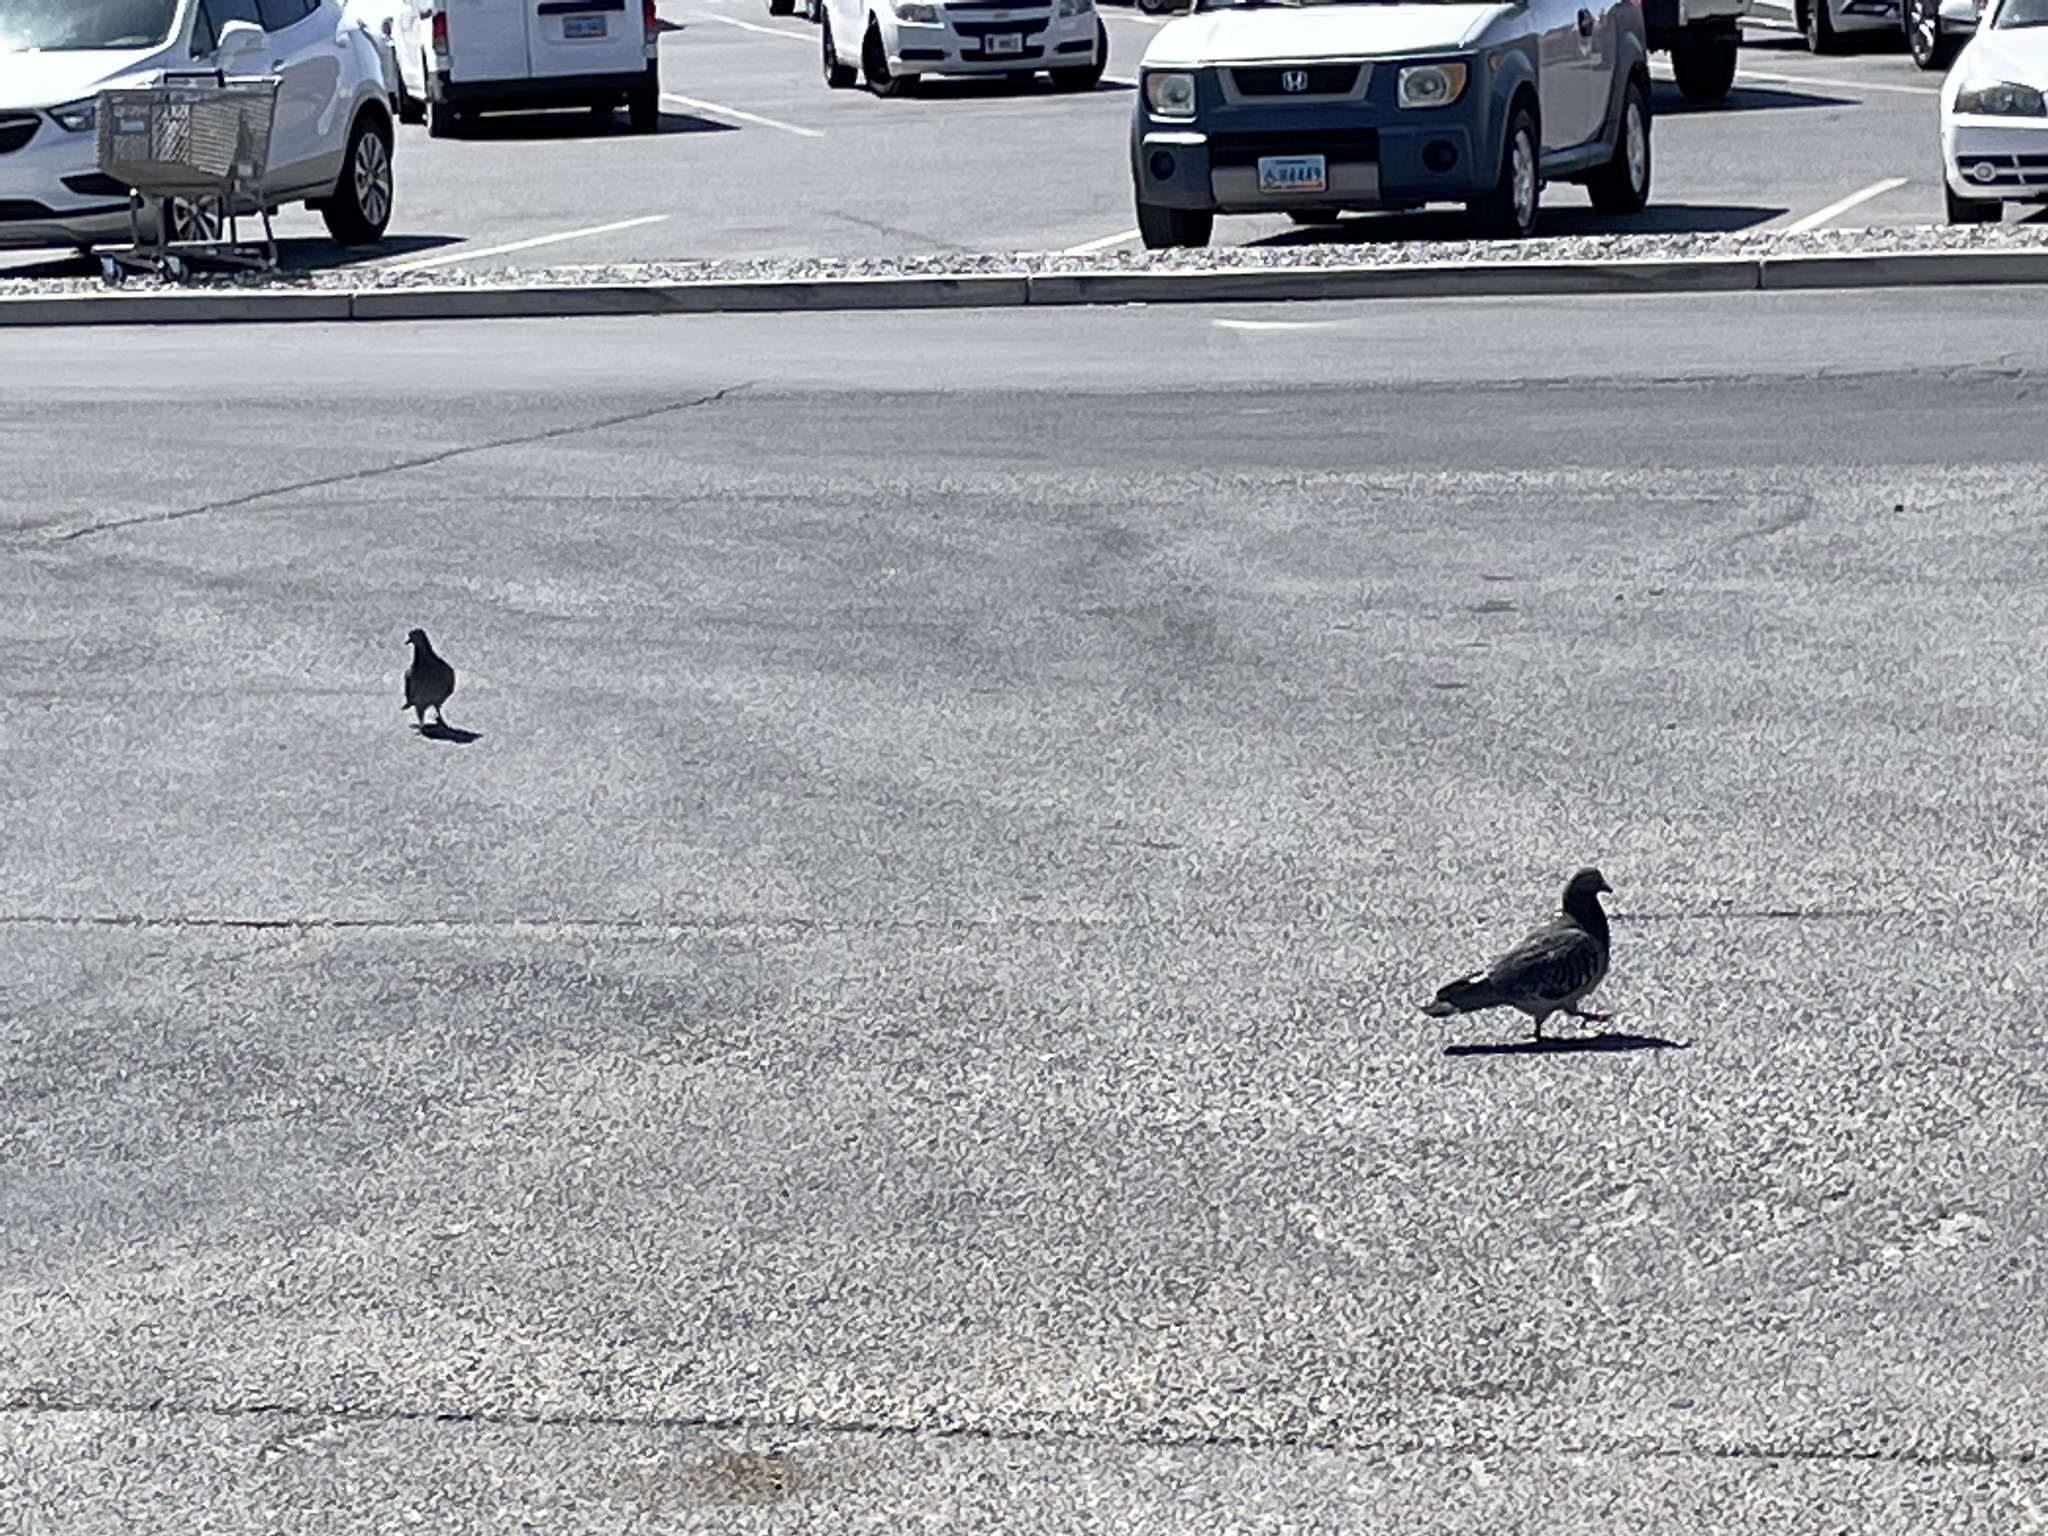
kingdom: Animalia
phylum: Chordata
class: Aves
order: Columbiformes
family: Columbidae
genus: Columba
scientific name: Columba livia
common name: Rock pigeon
